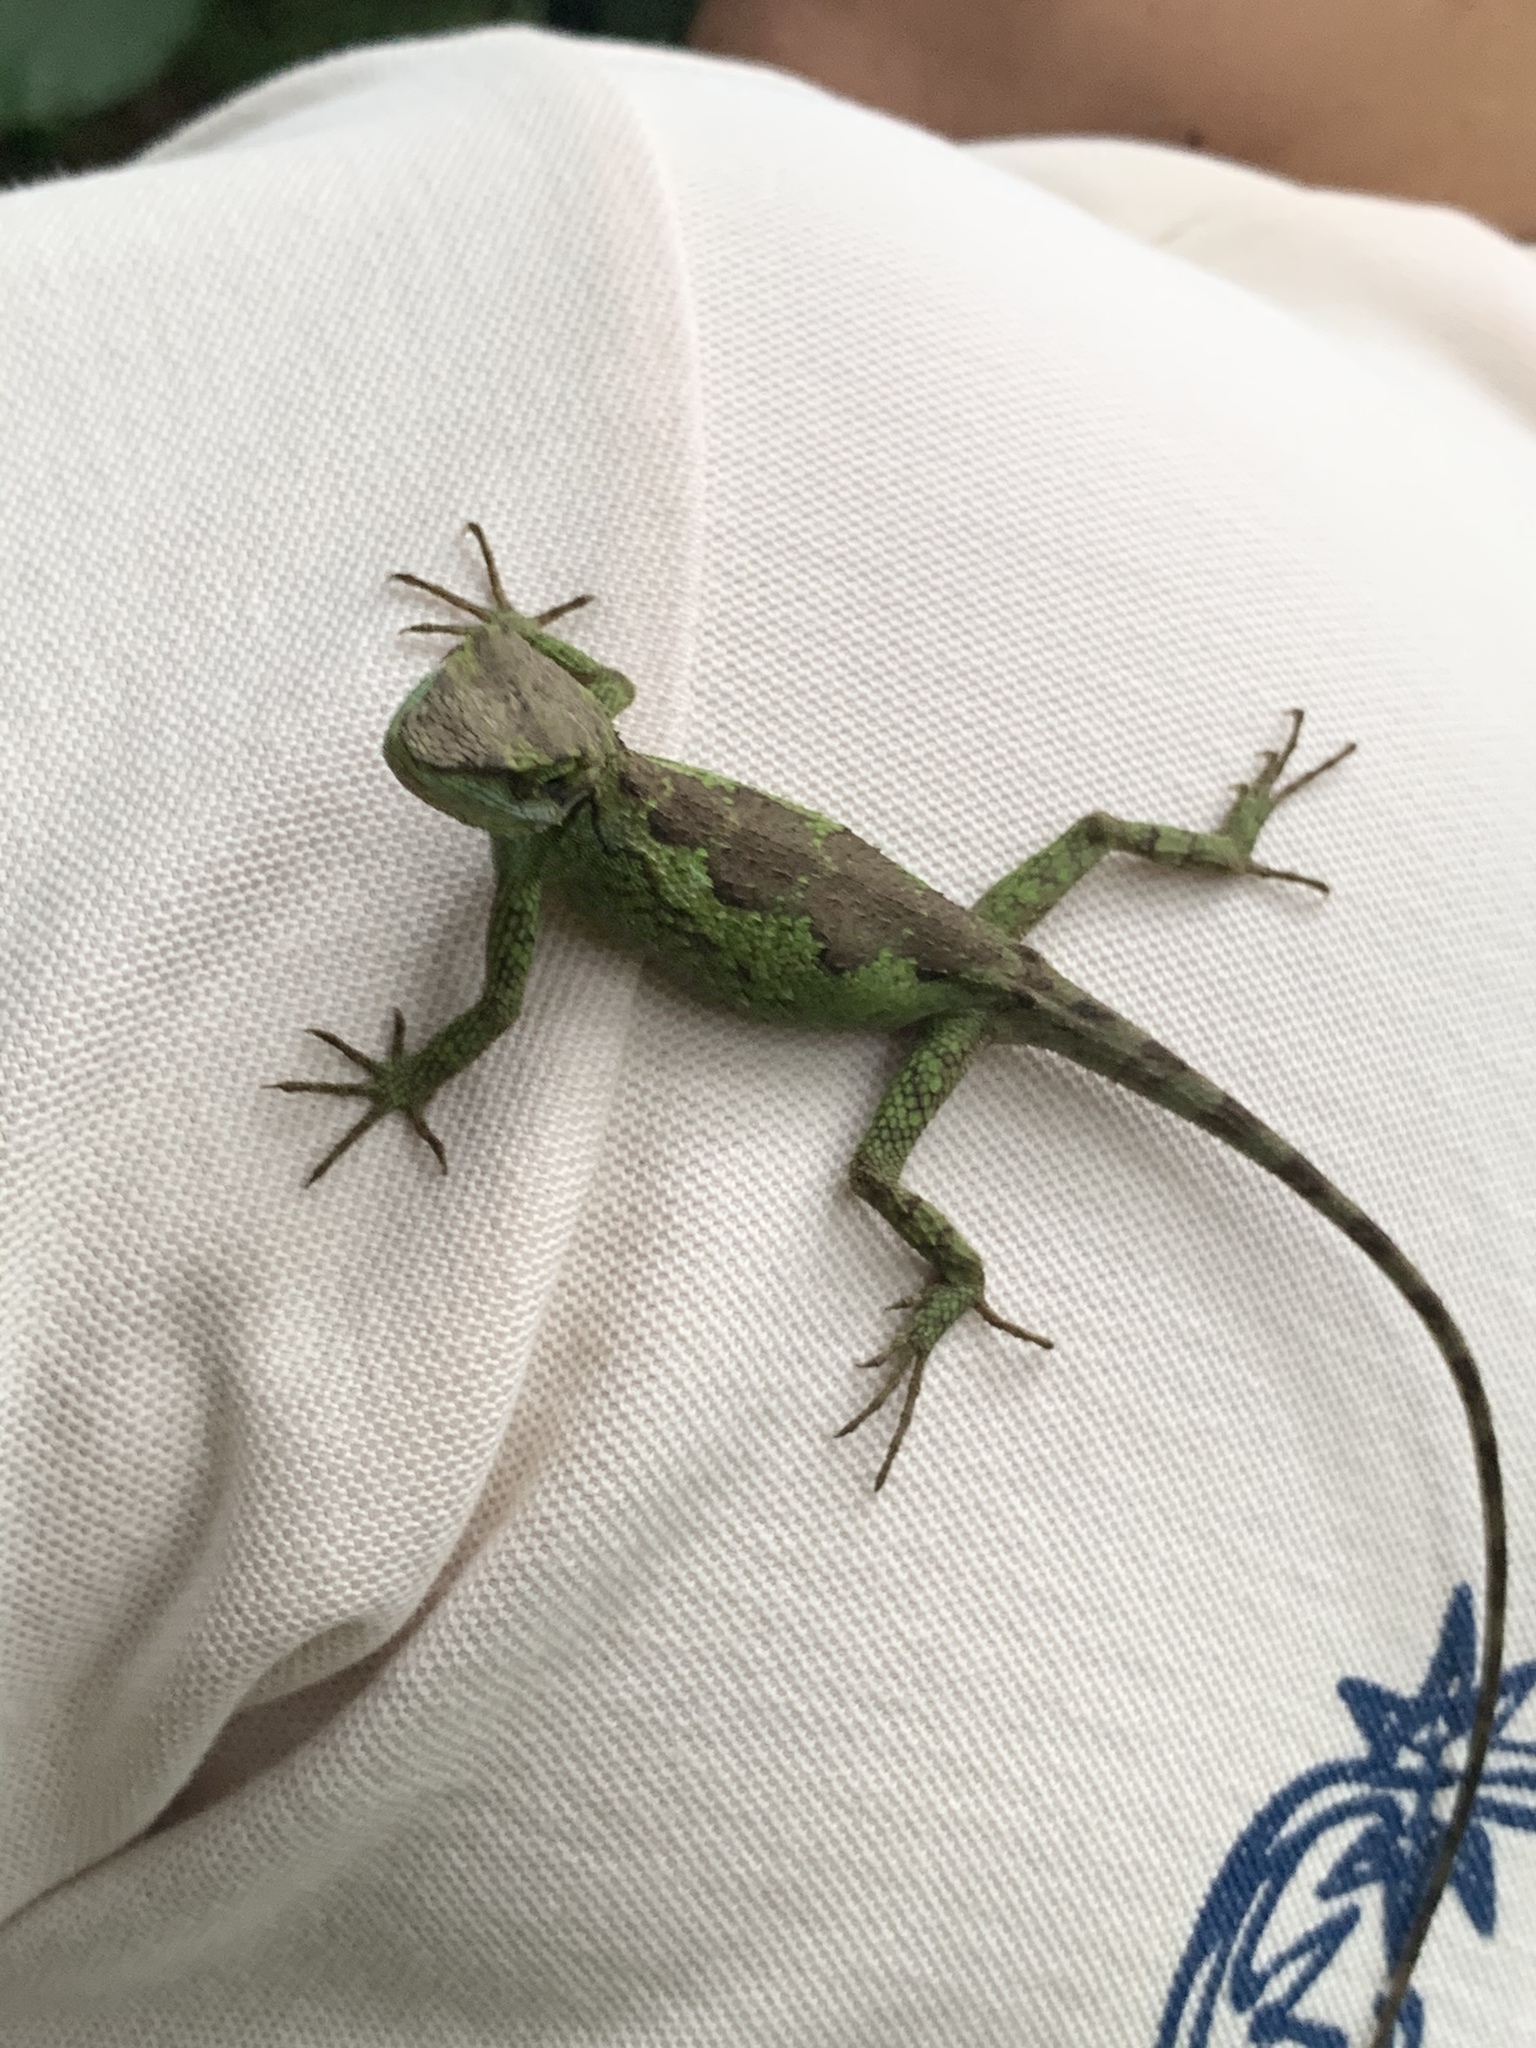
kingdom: Fungi
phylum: Basidiomycota
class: Agaricomycetes
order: Boletales
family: Diplocystidiaceae
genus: Diploderma
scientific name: Diploderma polygonatum
